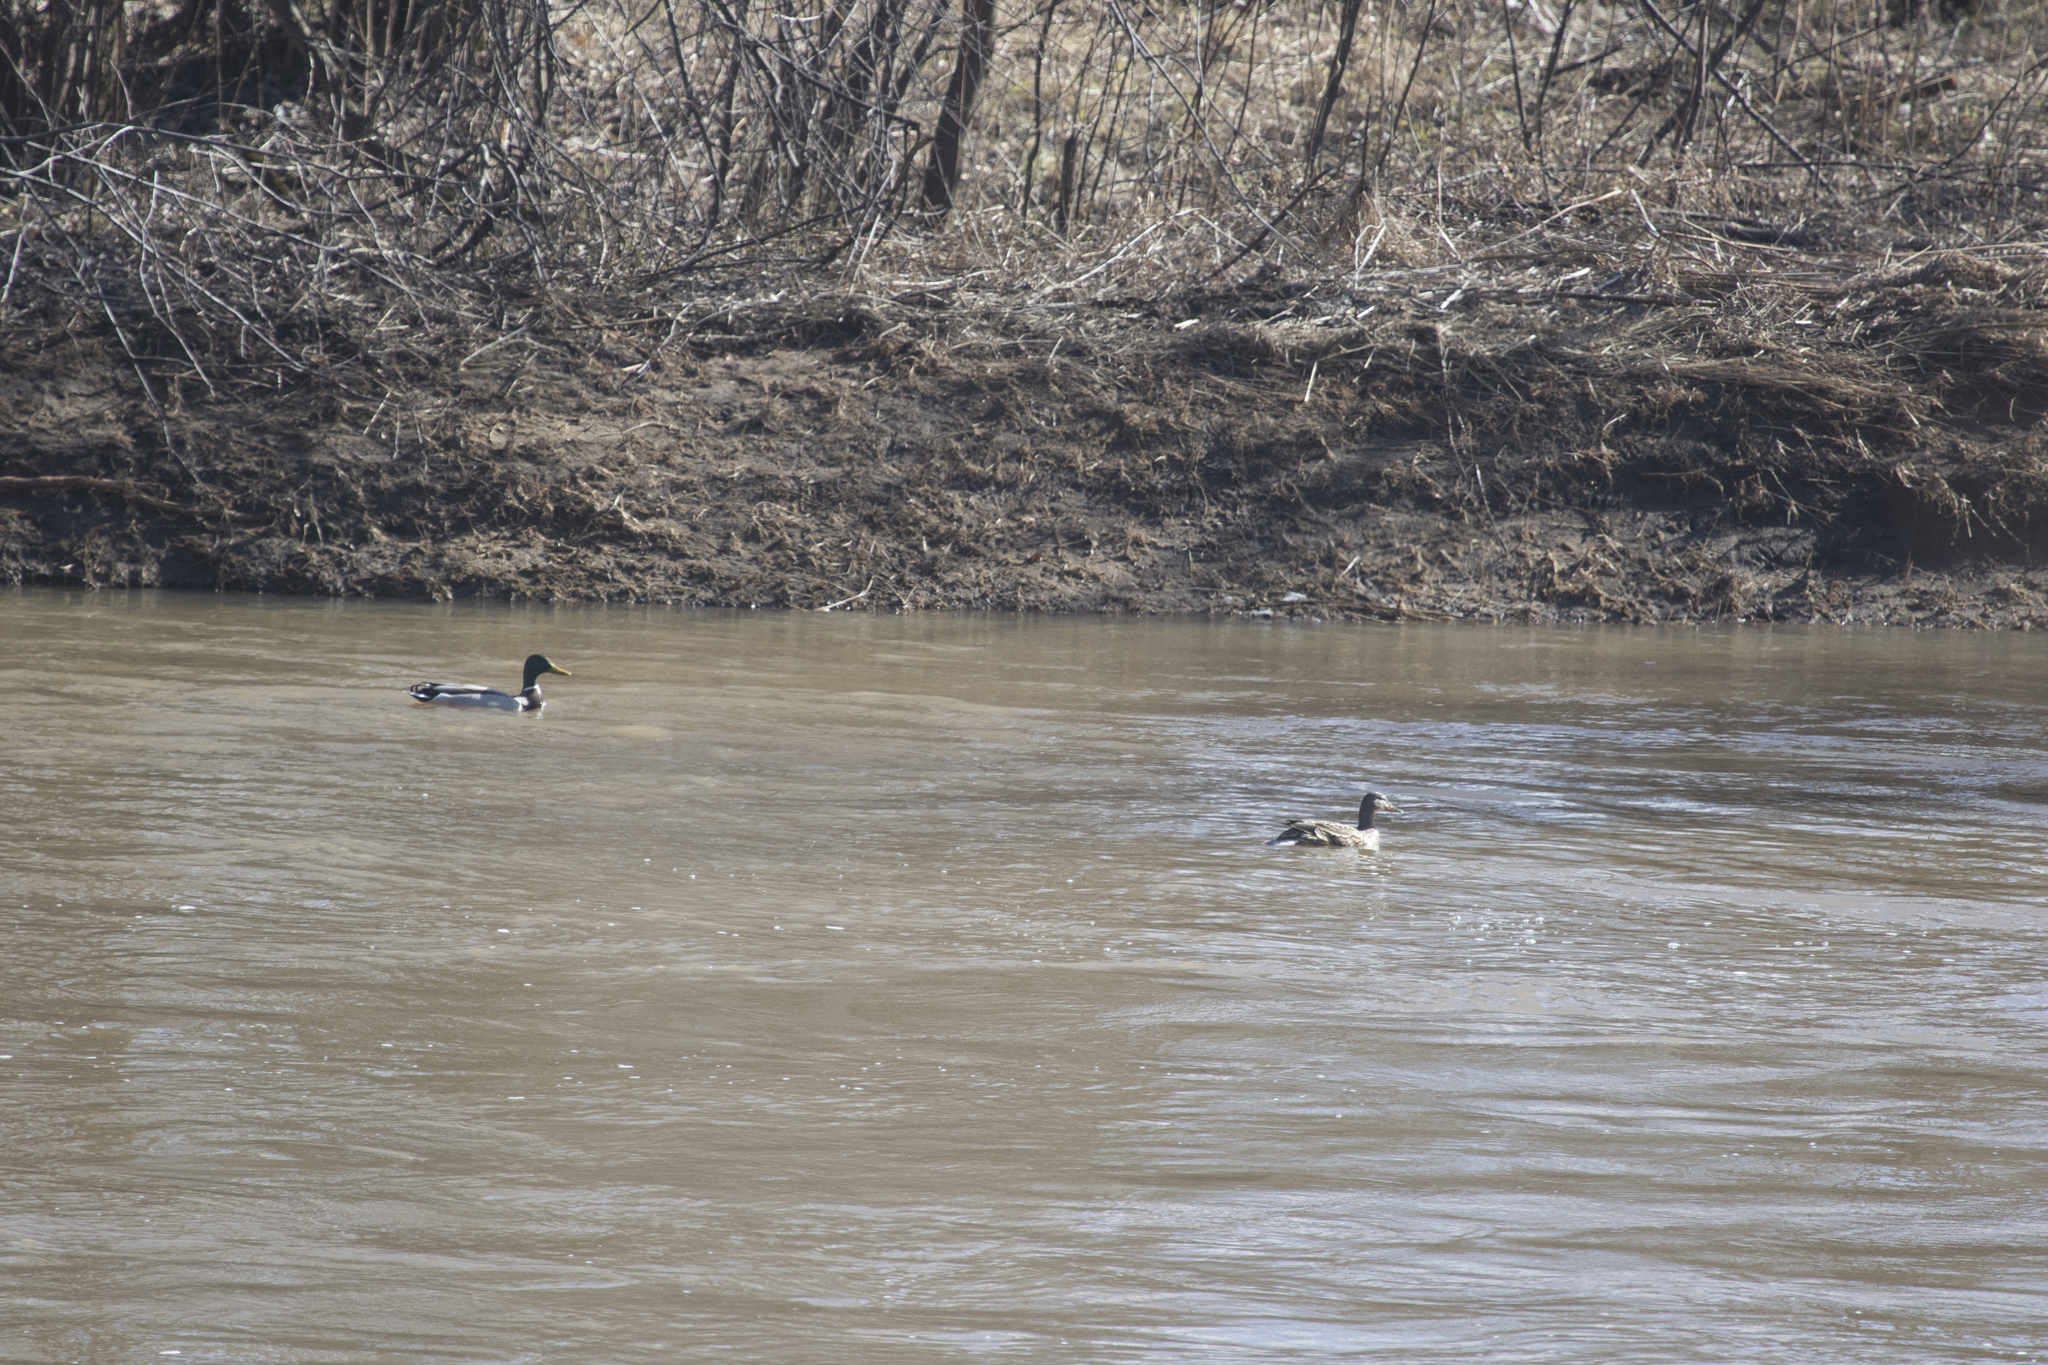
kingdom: Animalia
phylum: Chordata
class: Aves
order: Anseriformes
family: Anatidae
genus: Anas
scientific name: Anas platyrhynchos
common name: Mallard
